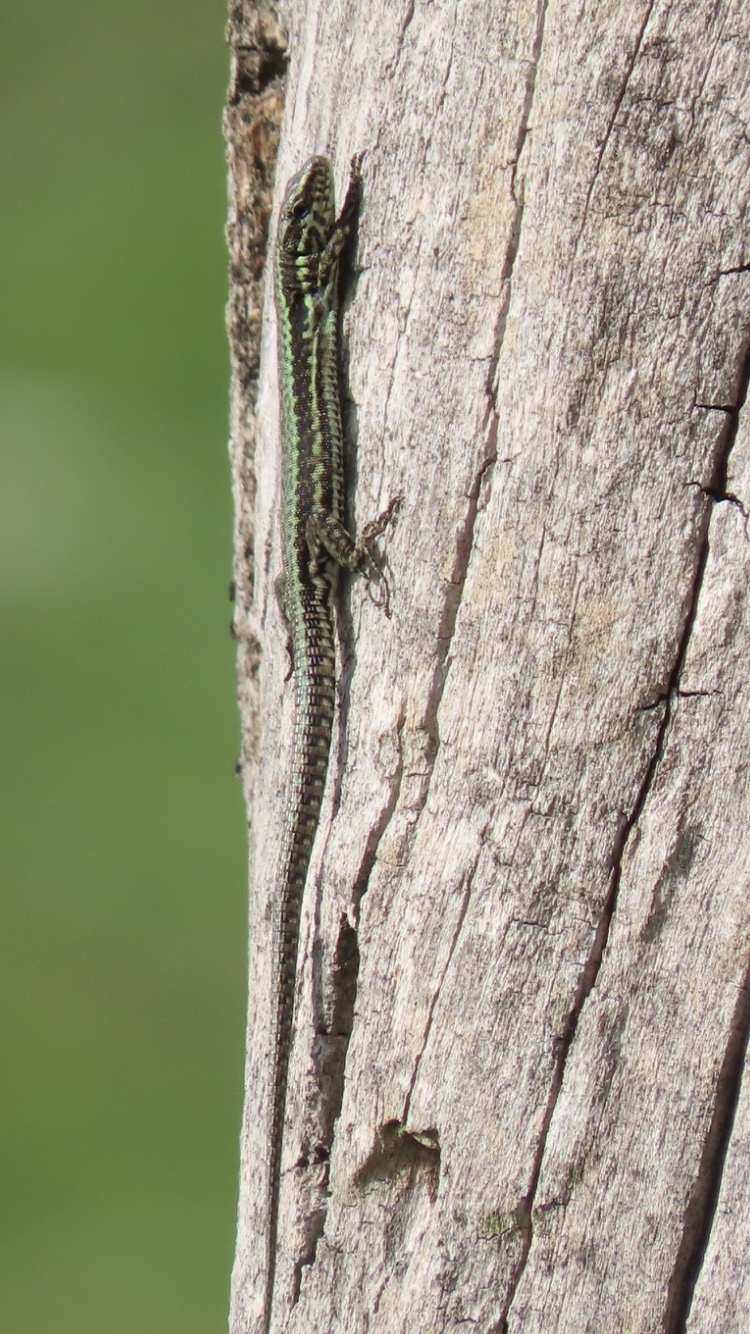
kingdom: Animalia
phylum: Chordata
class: Squamata
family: Lacertidae
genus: Podarcis
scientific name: Podarcis muralis
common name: Common wall lizard
